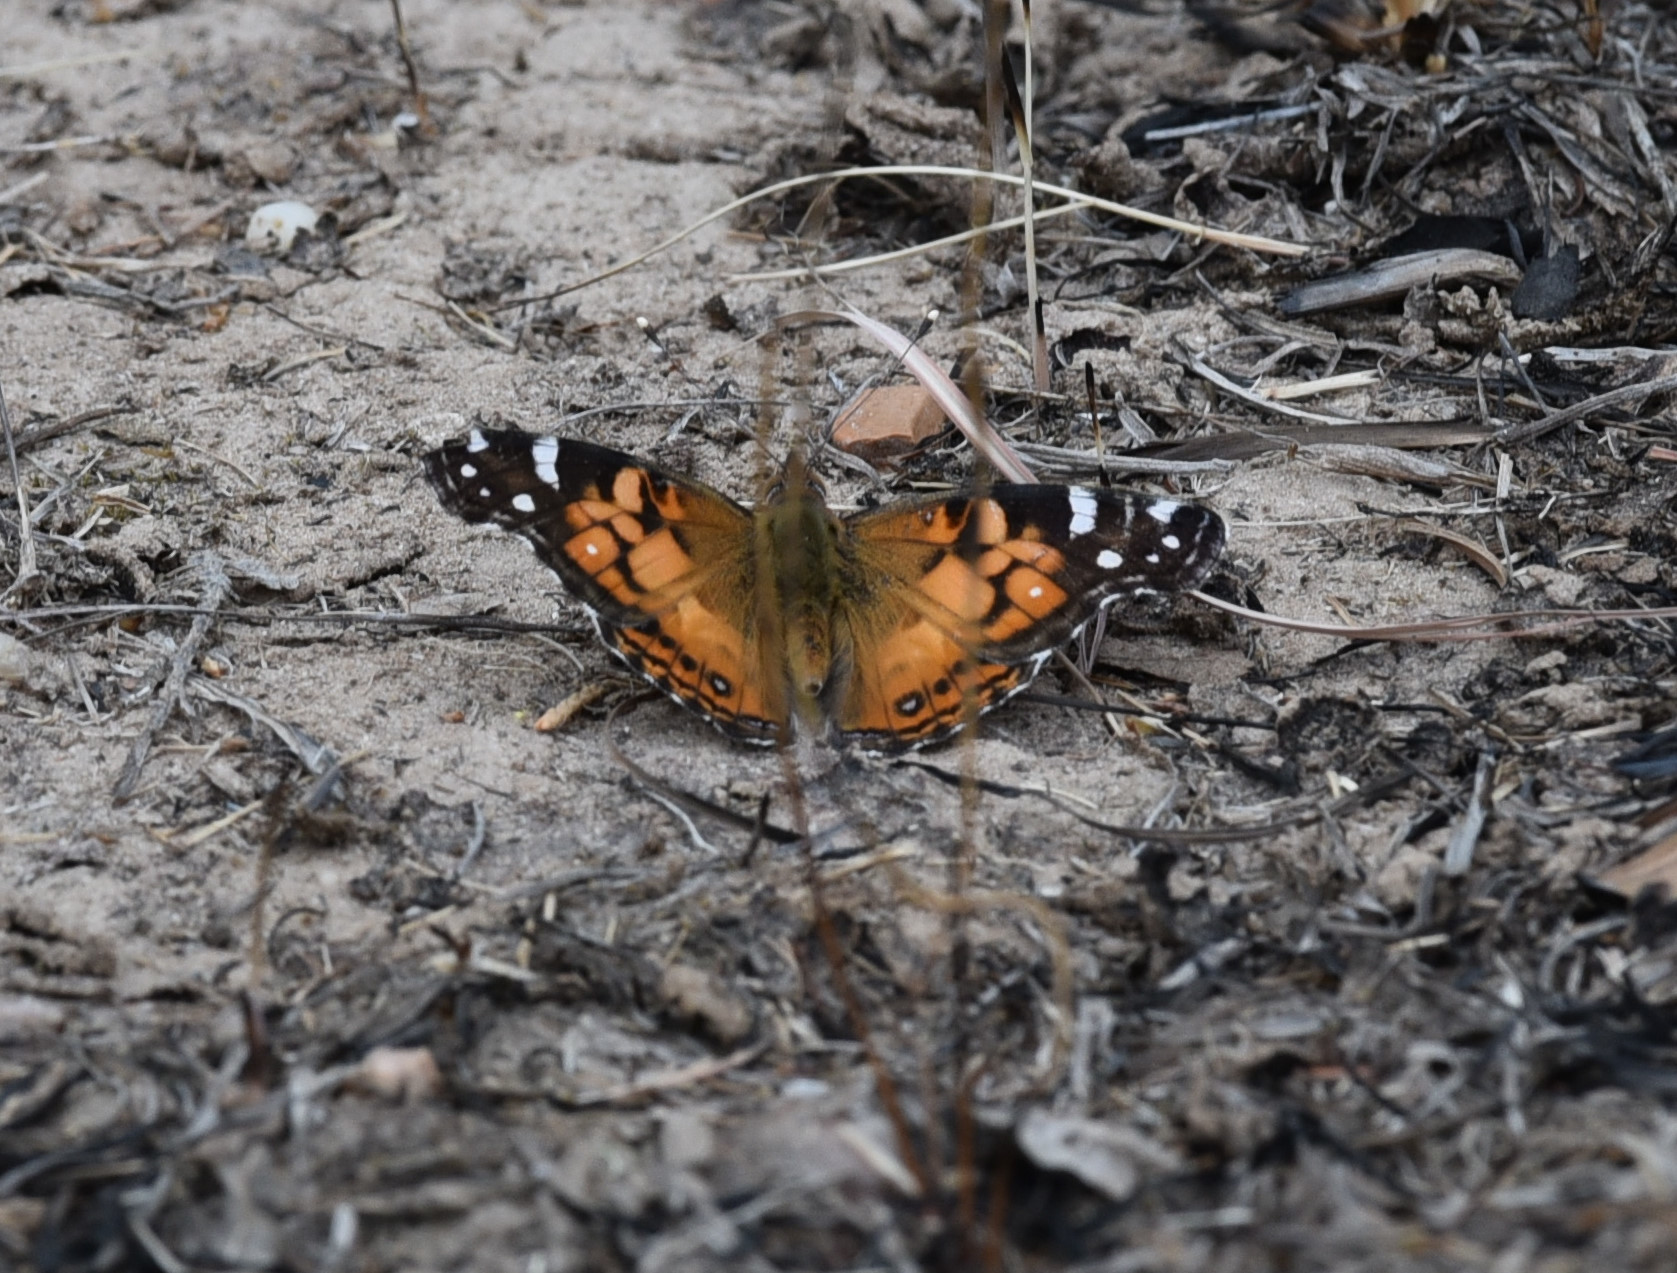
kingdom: Animalia
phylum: Arthropoda
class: Insecta
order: Lepidoptera
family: Nymphalidae
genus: Vanessa
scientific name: Vanessa virginiensis
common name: American lady
